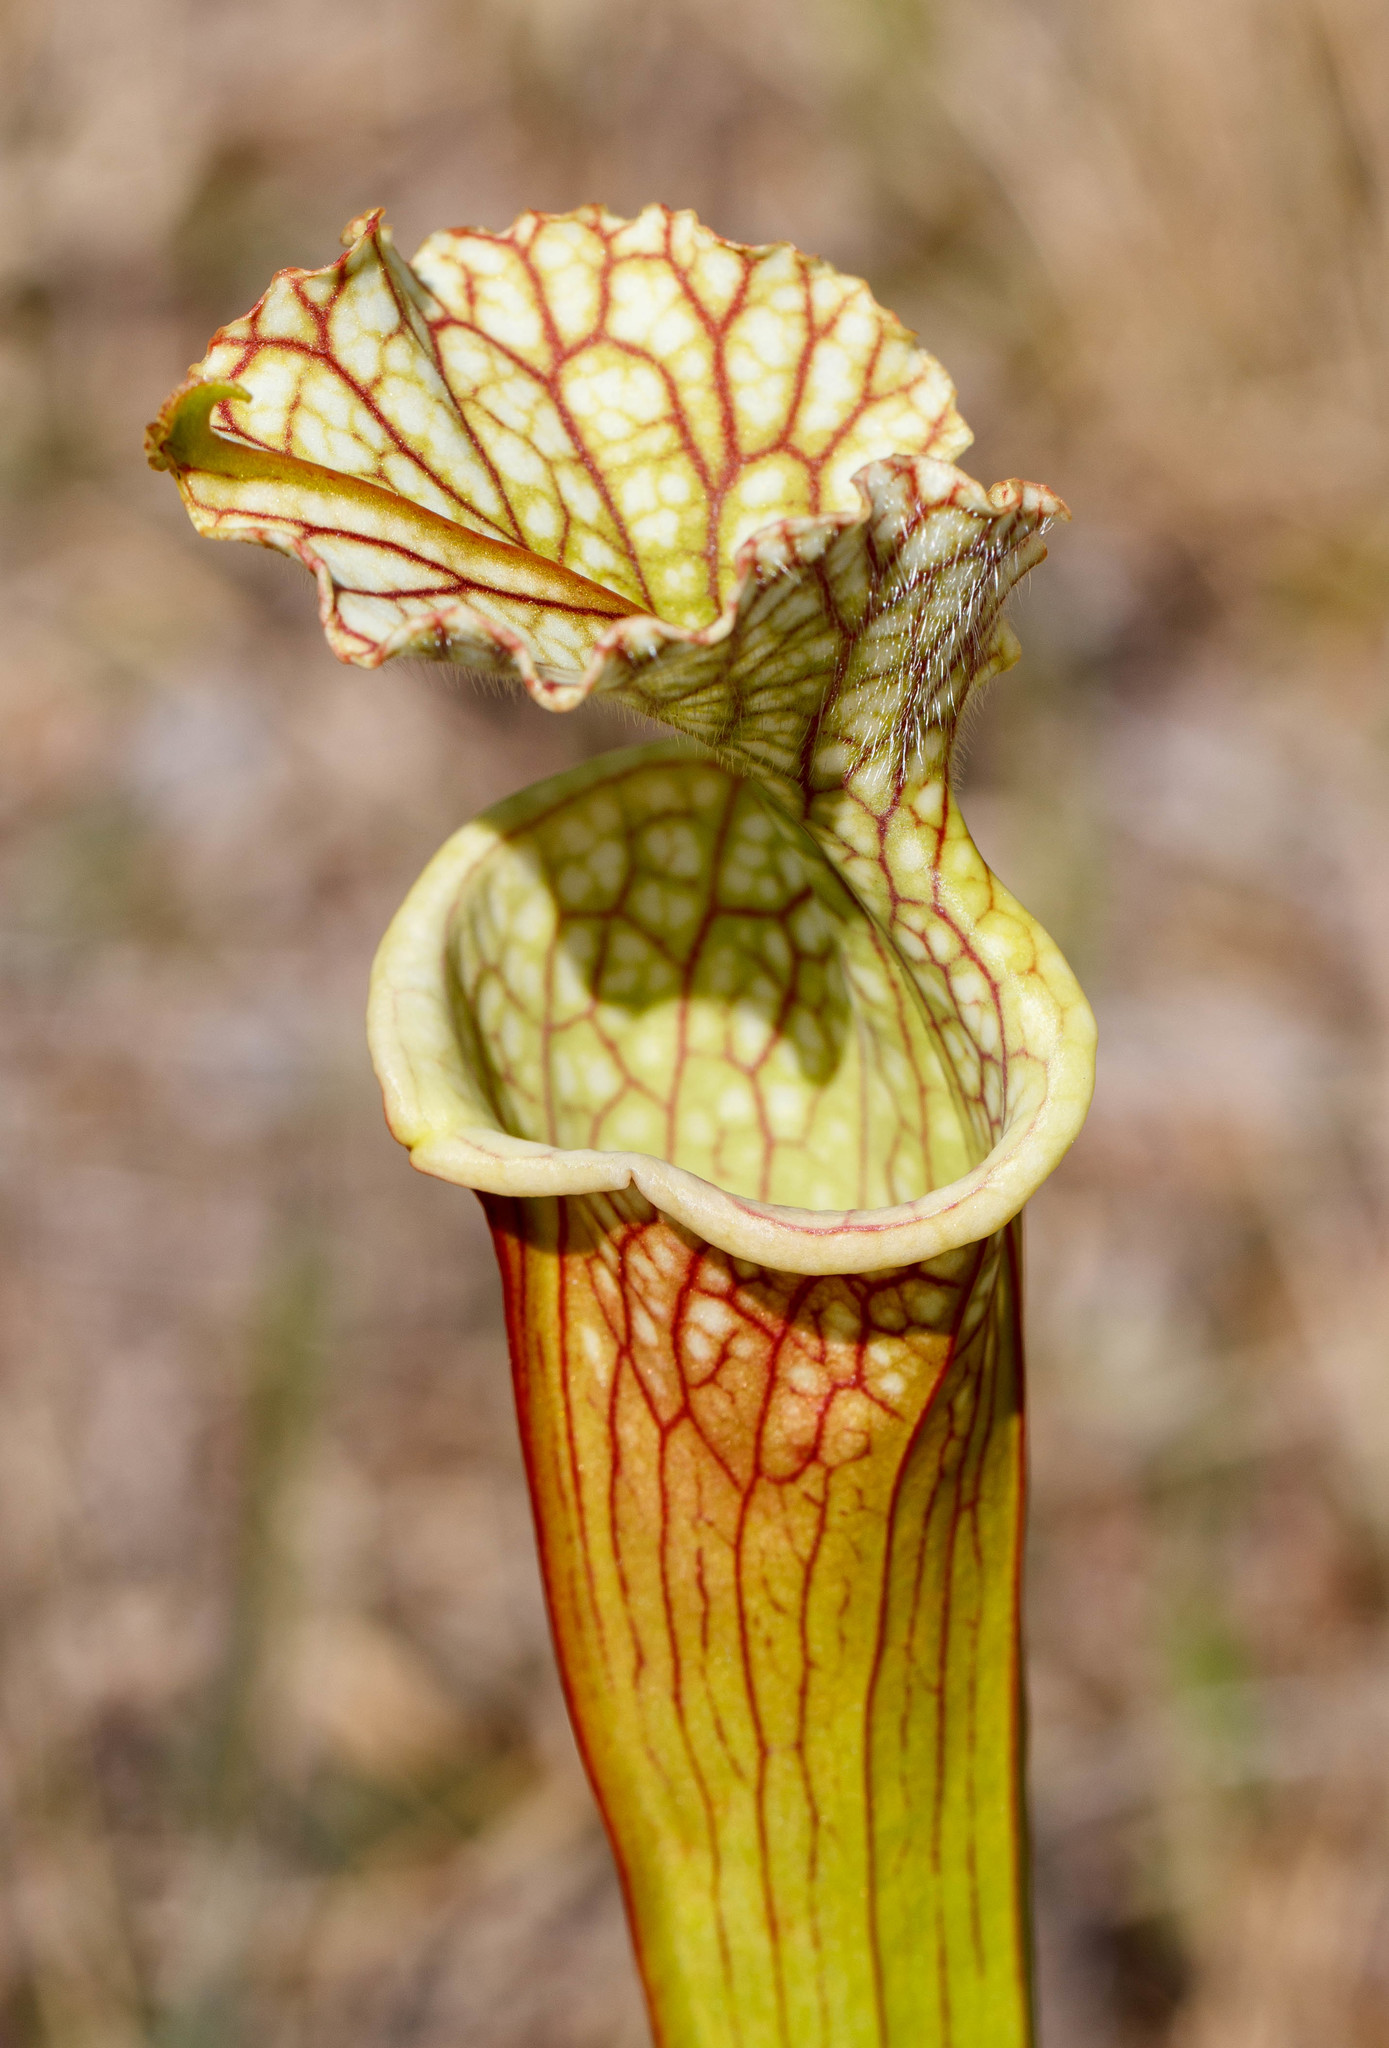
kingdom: Plantae
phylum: Tracheophyta
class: Magnoliopsida
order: Ericales
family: Sarraceniaceae
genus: Sarracenia
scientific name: Sarracenia leucophylla
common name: Purple trumpetleaf
